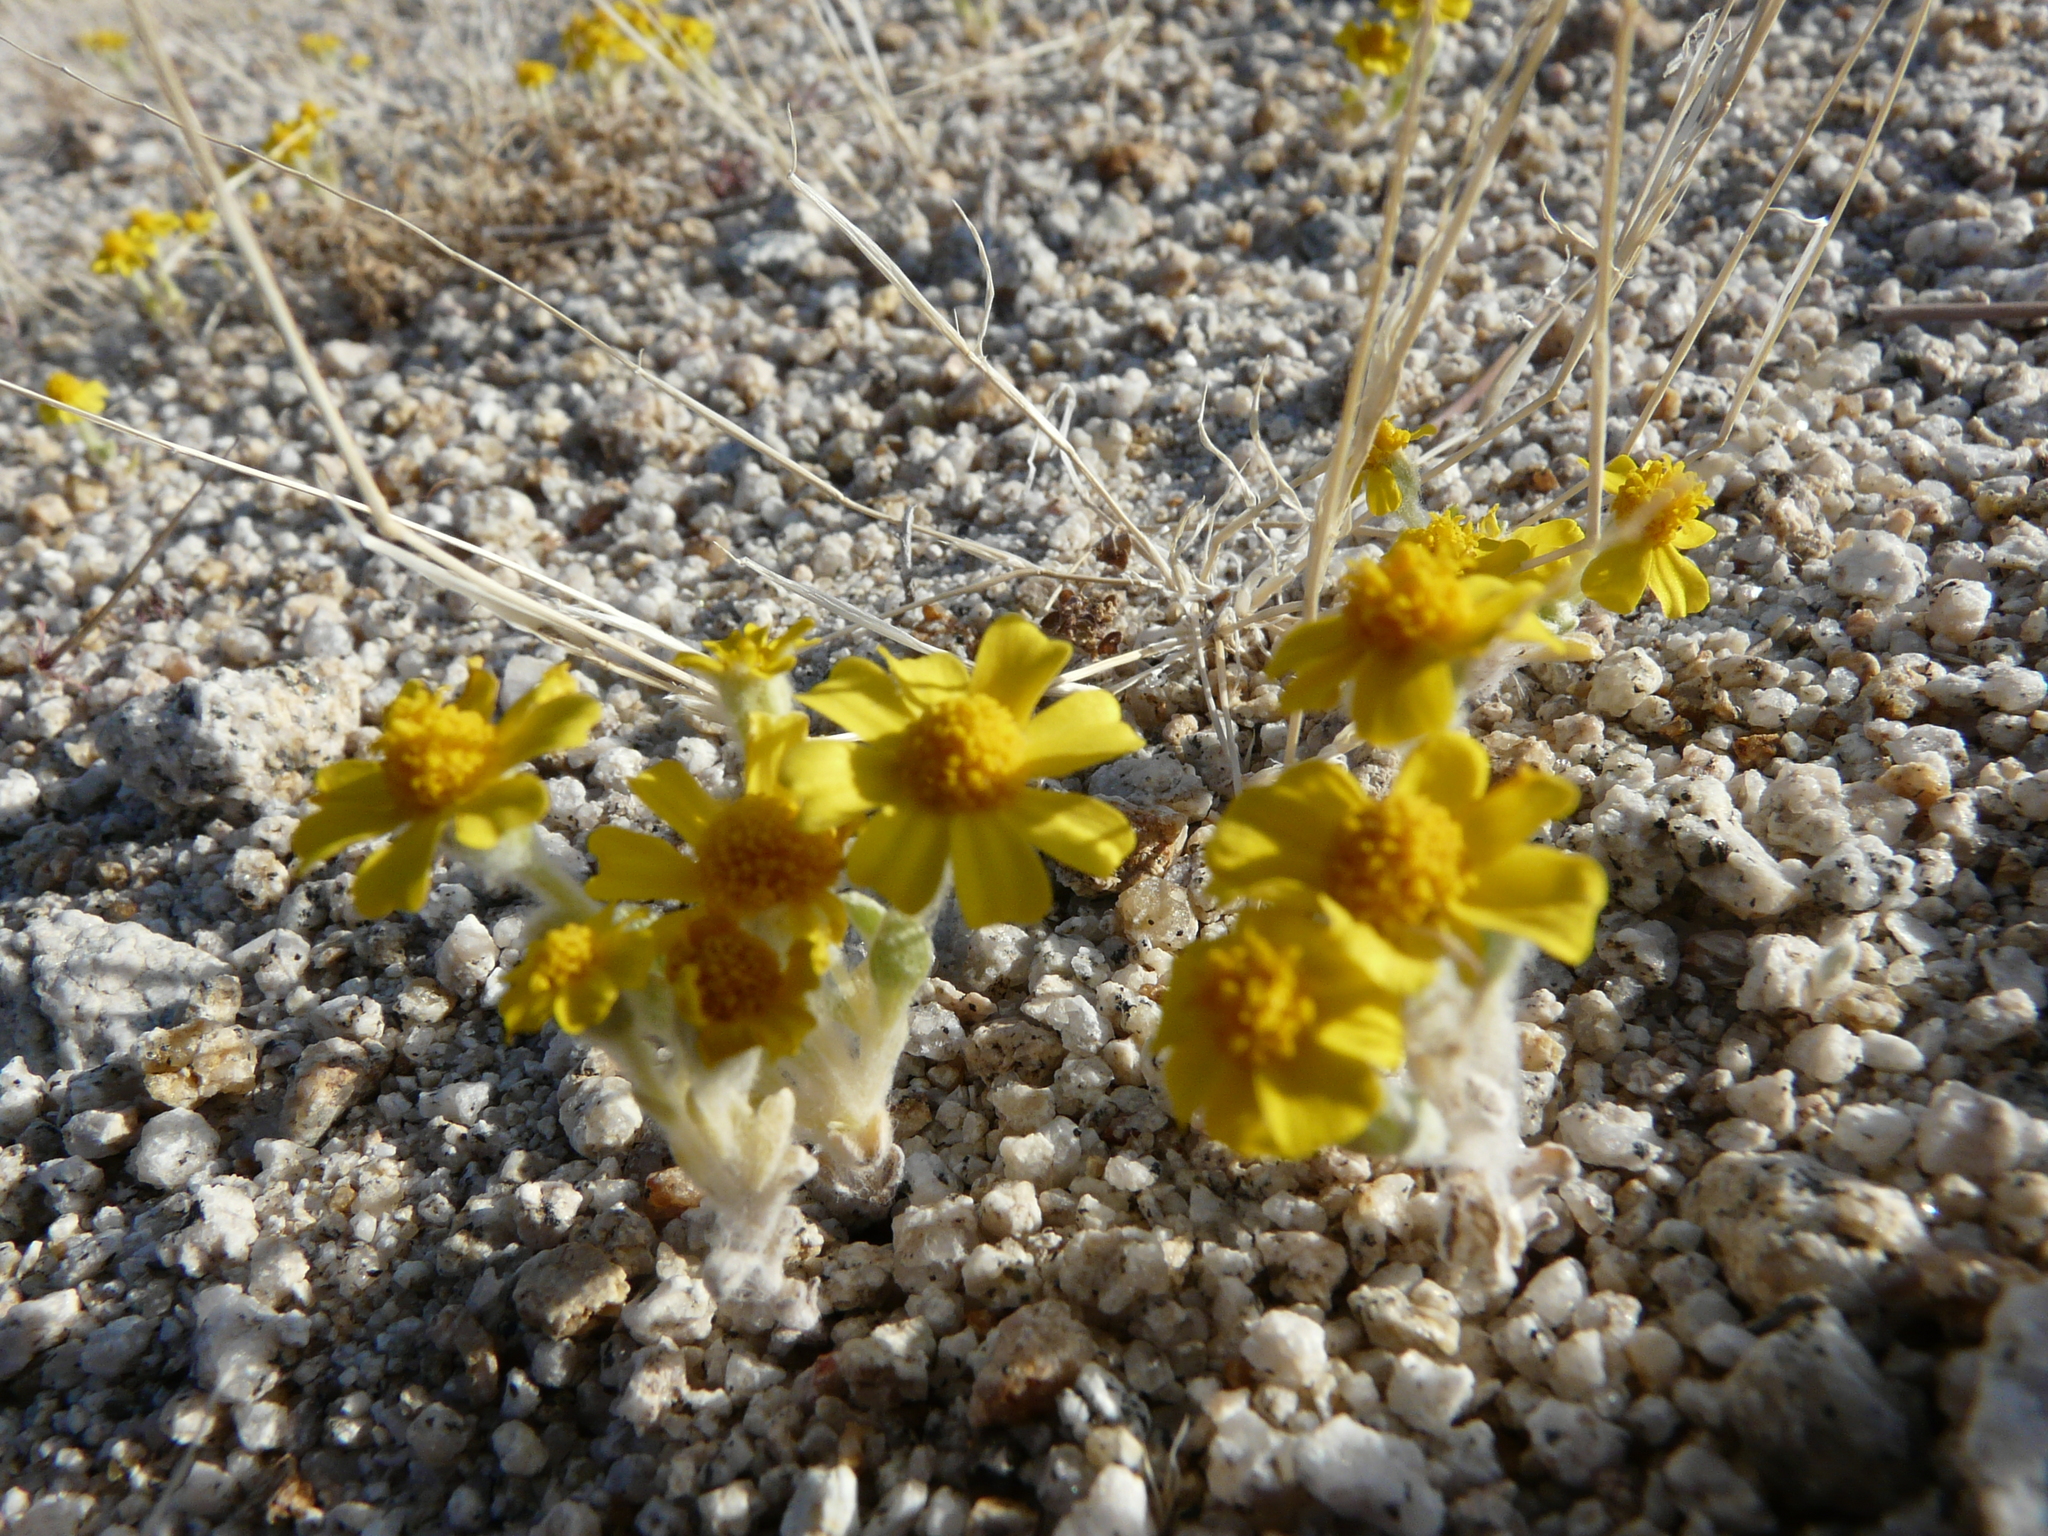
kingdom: Plantae
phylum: Tracheophyta
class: Magnoliopsida
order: Asterales
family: Asteraceae
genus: Eriophyllum
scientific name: Eriophyllum wallacei
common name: Wallace's woolly daisy
